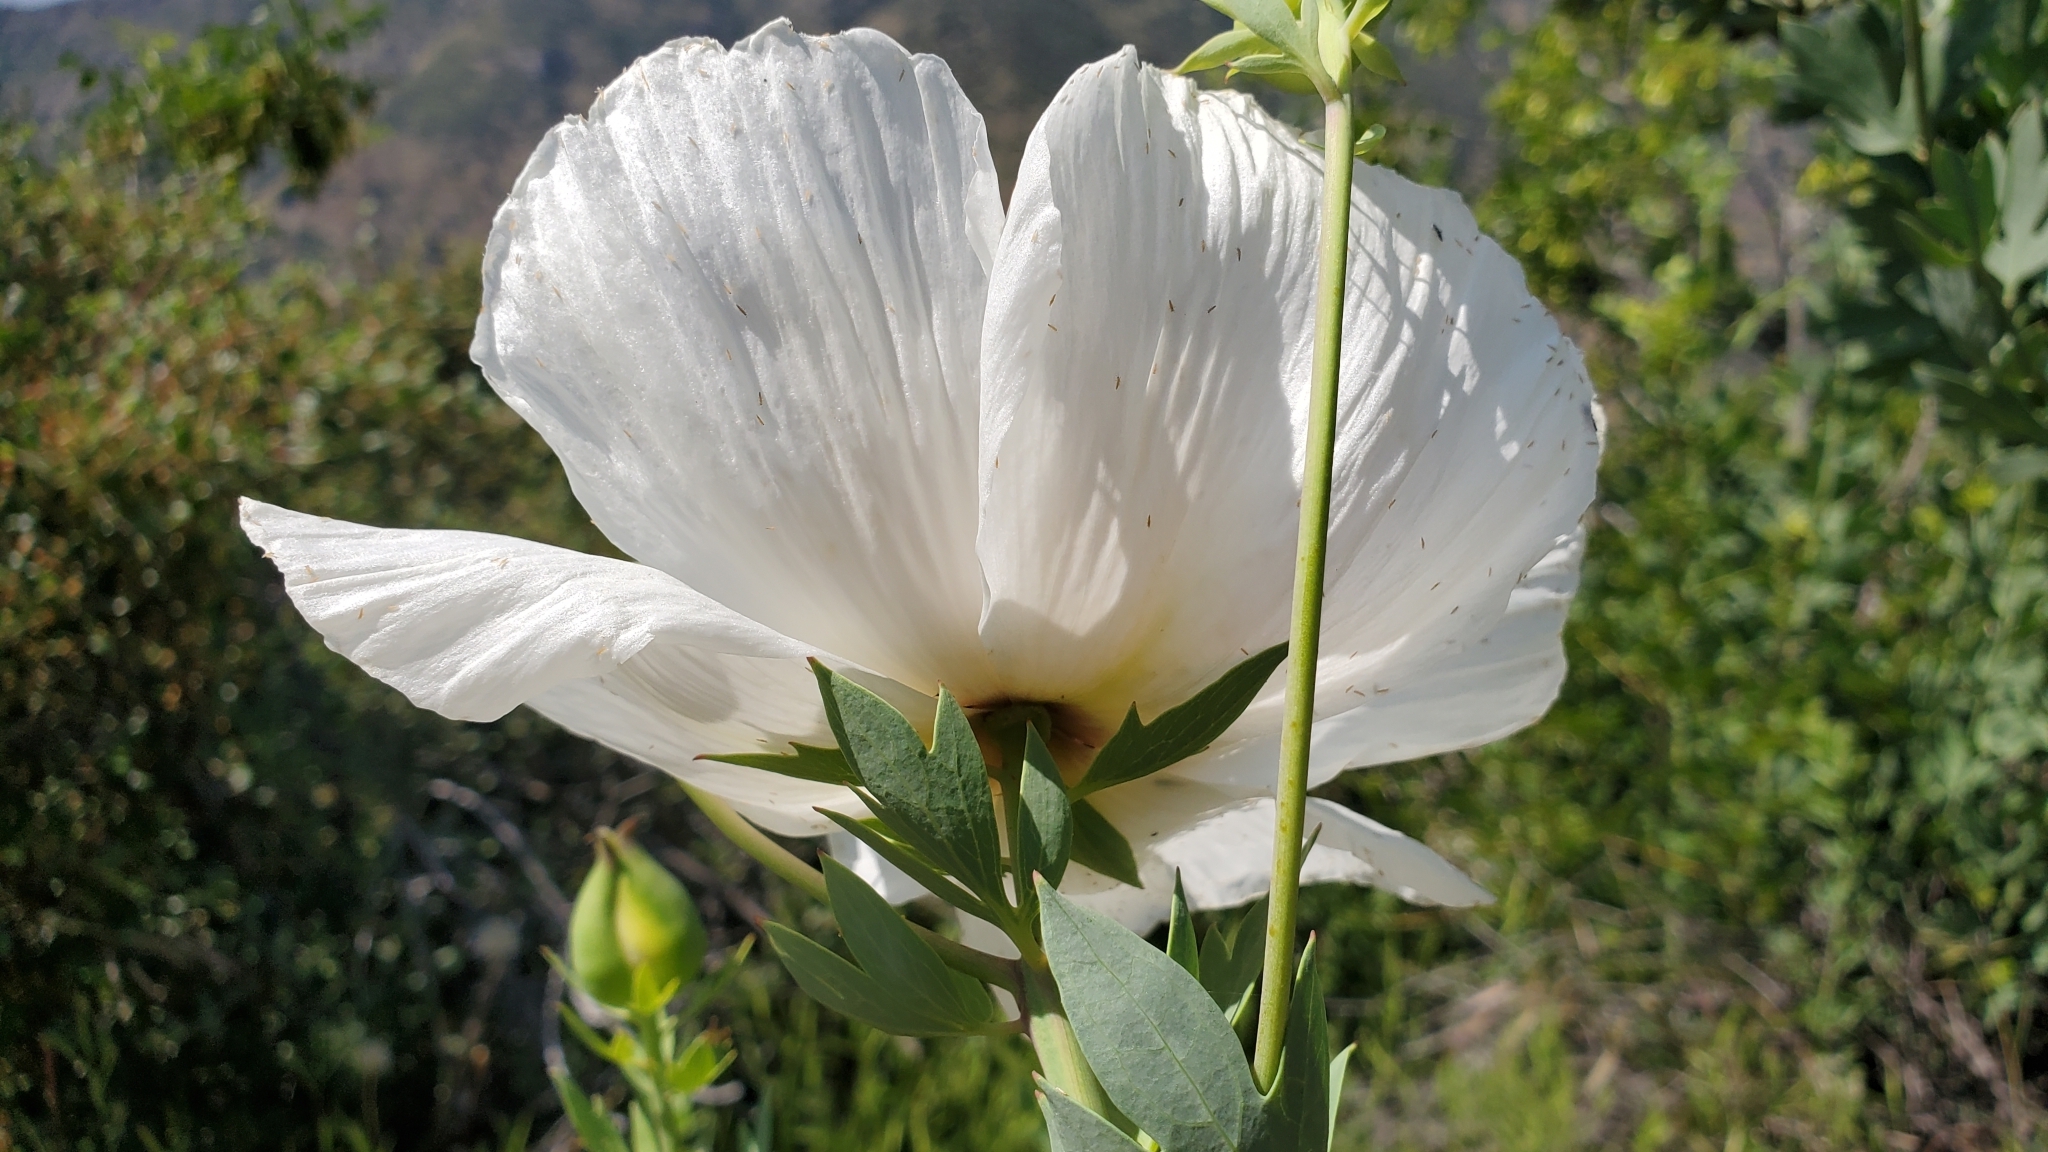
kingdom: Plantae
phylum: Tracheophyta
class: Magnoliopsida
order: Ranunculales
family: Papaveraceae
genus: Romneya
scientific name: Romneya coulteri
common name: California tree-poppy
